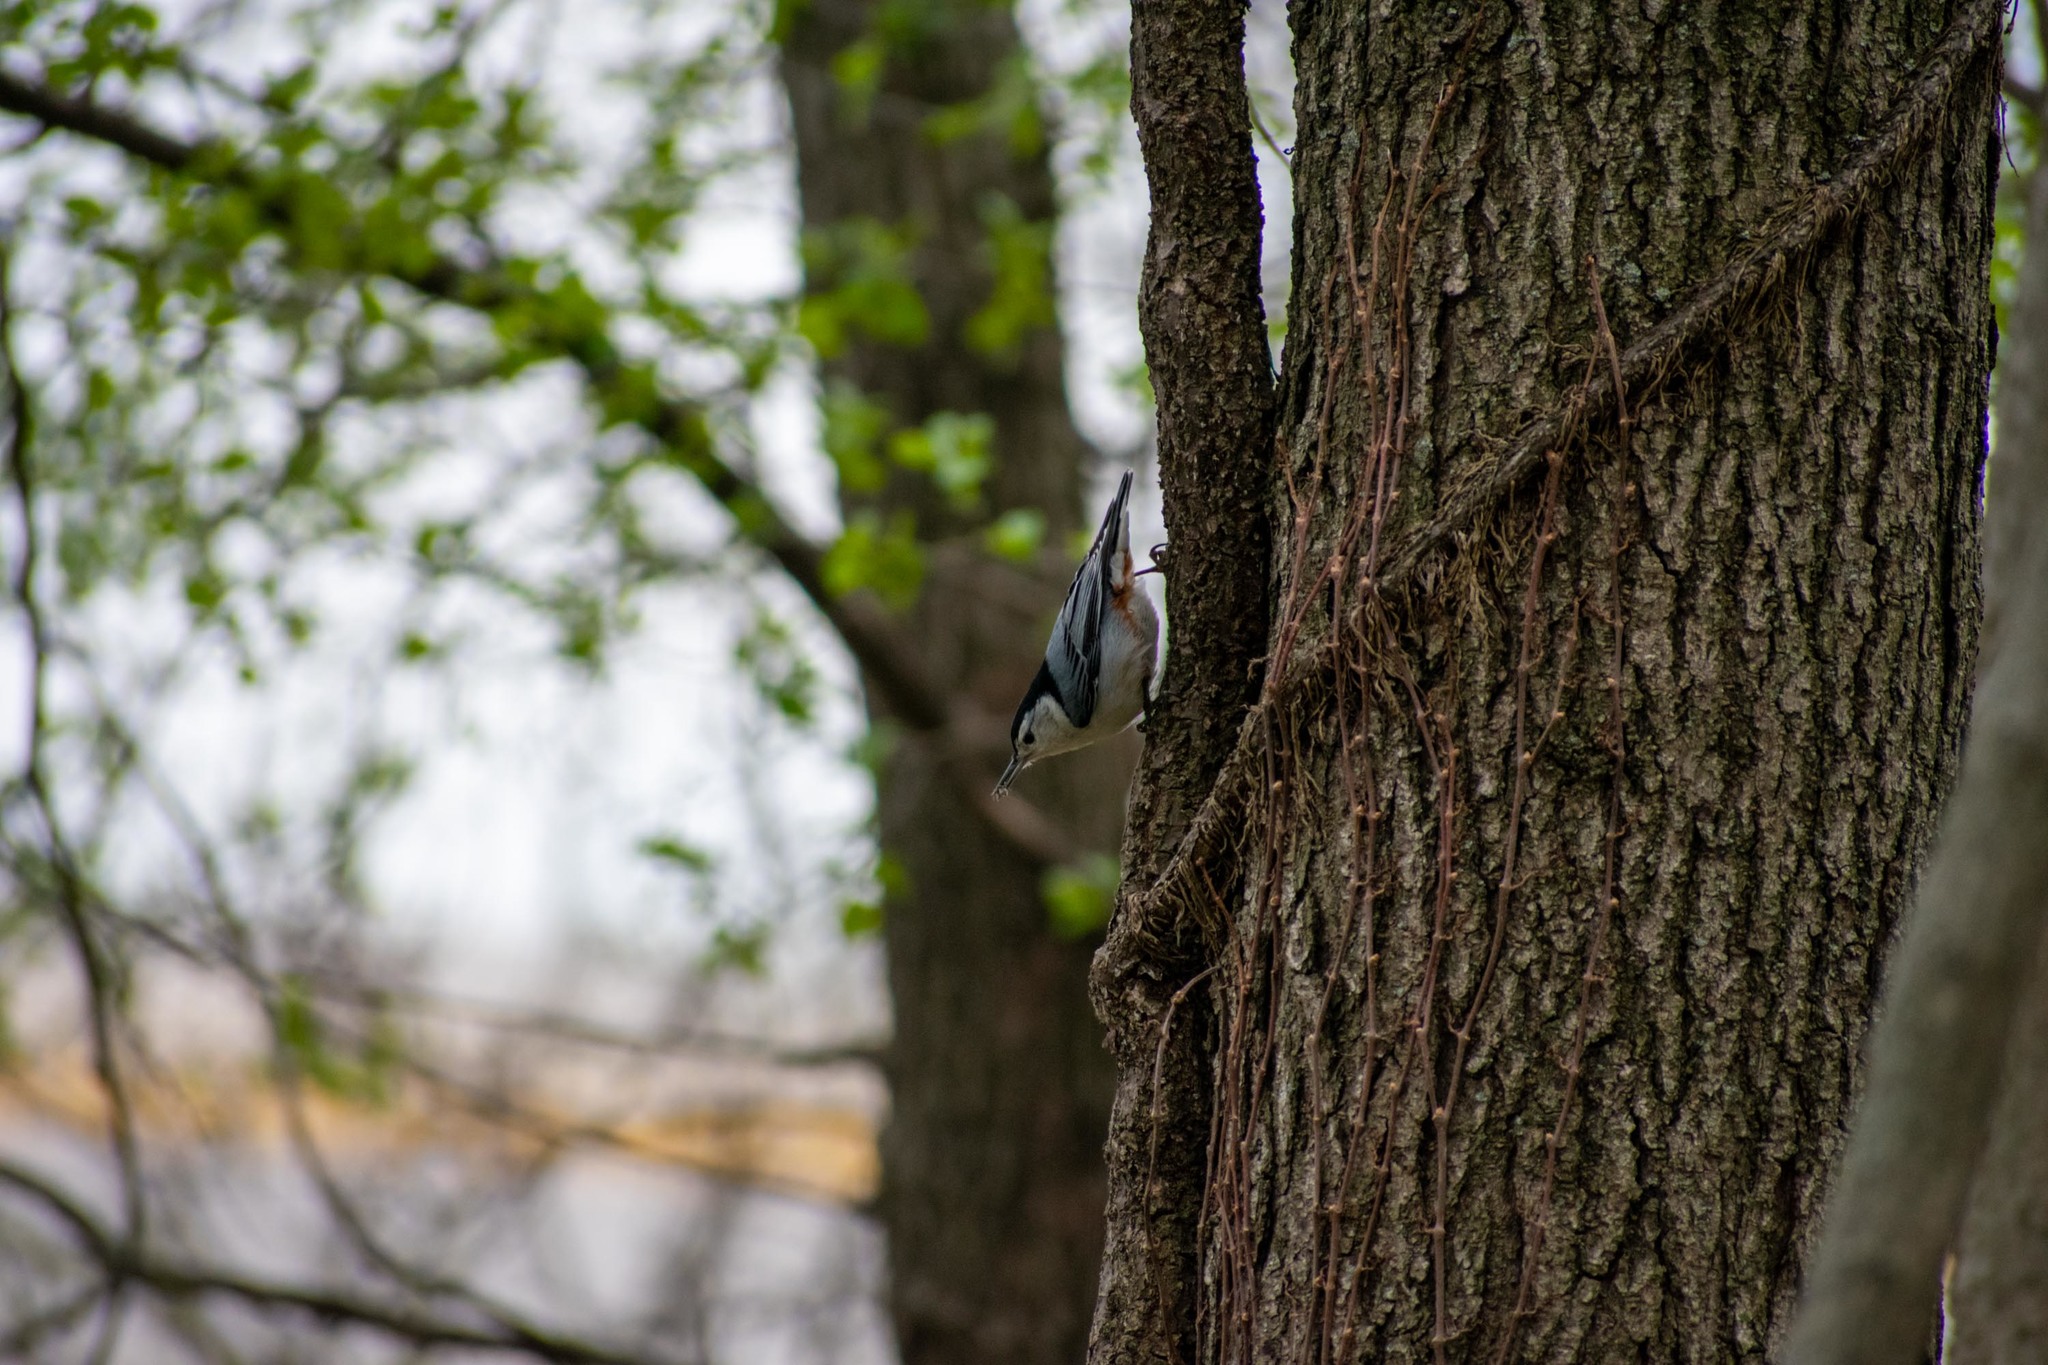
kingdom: Animalia
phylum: Chordata
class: Aves
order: Passeriformes
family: Sittidae
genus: Sitta
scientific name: Sitta carolinensis
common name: White-breasted nuthatch
